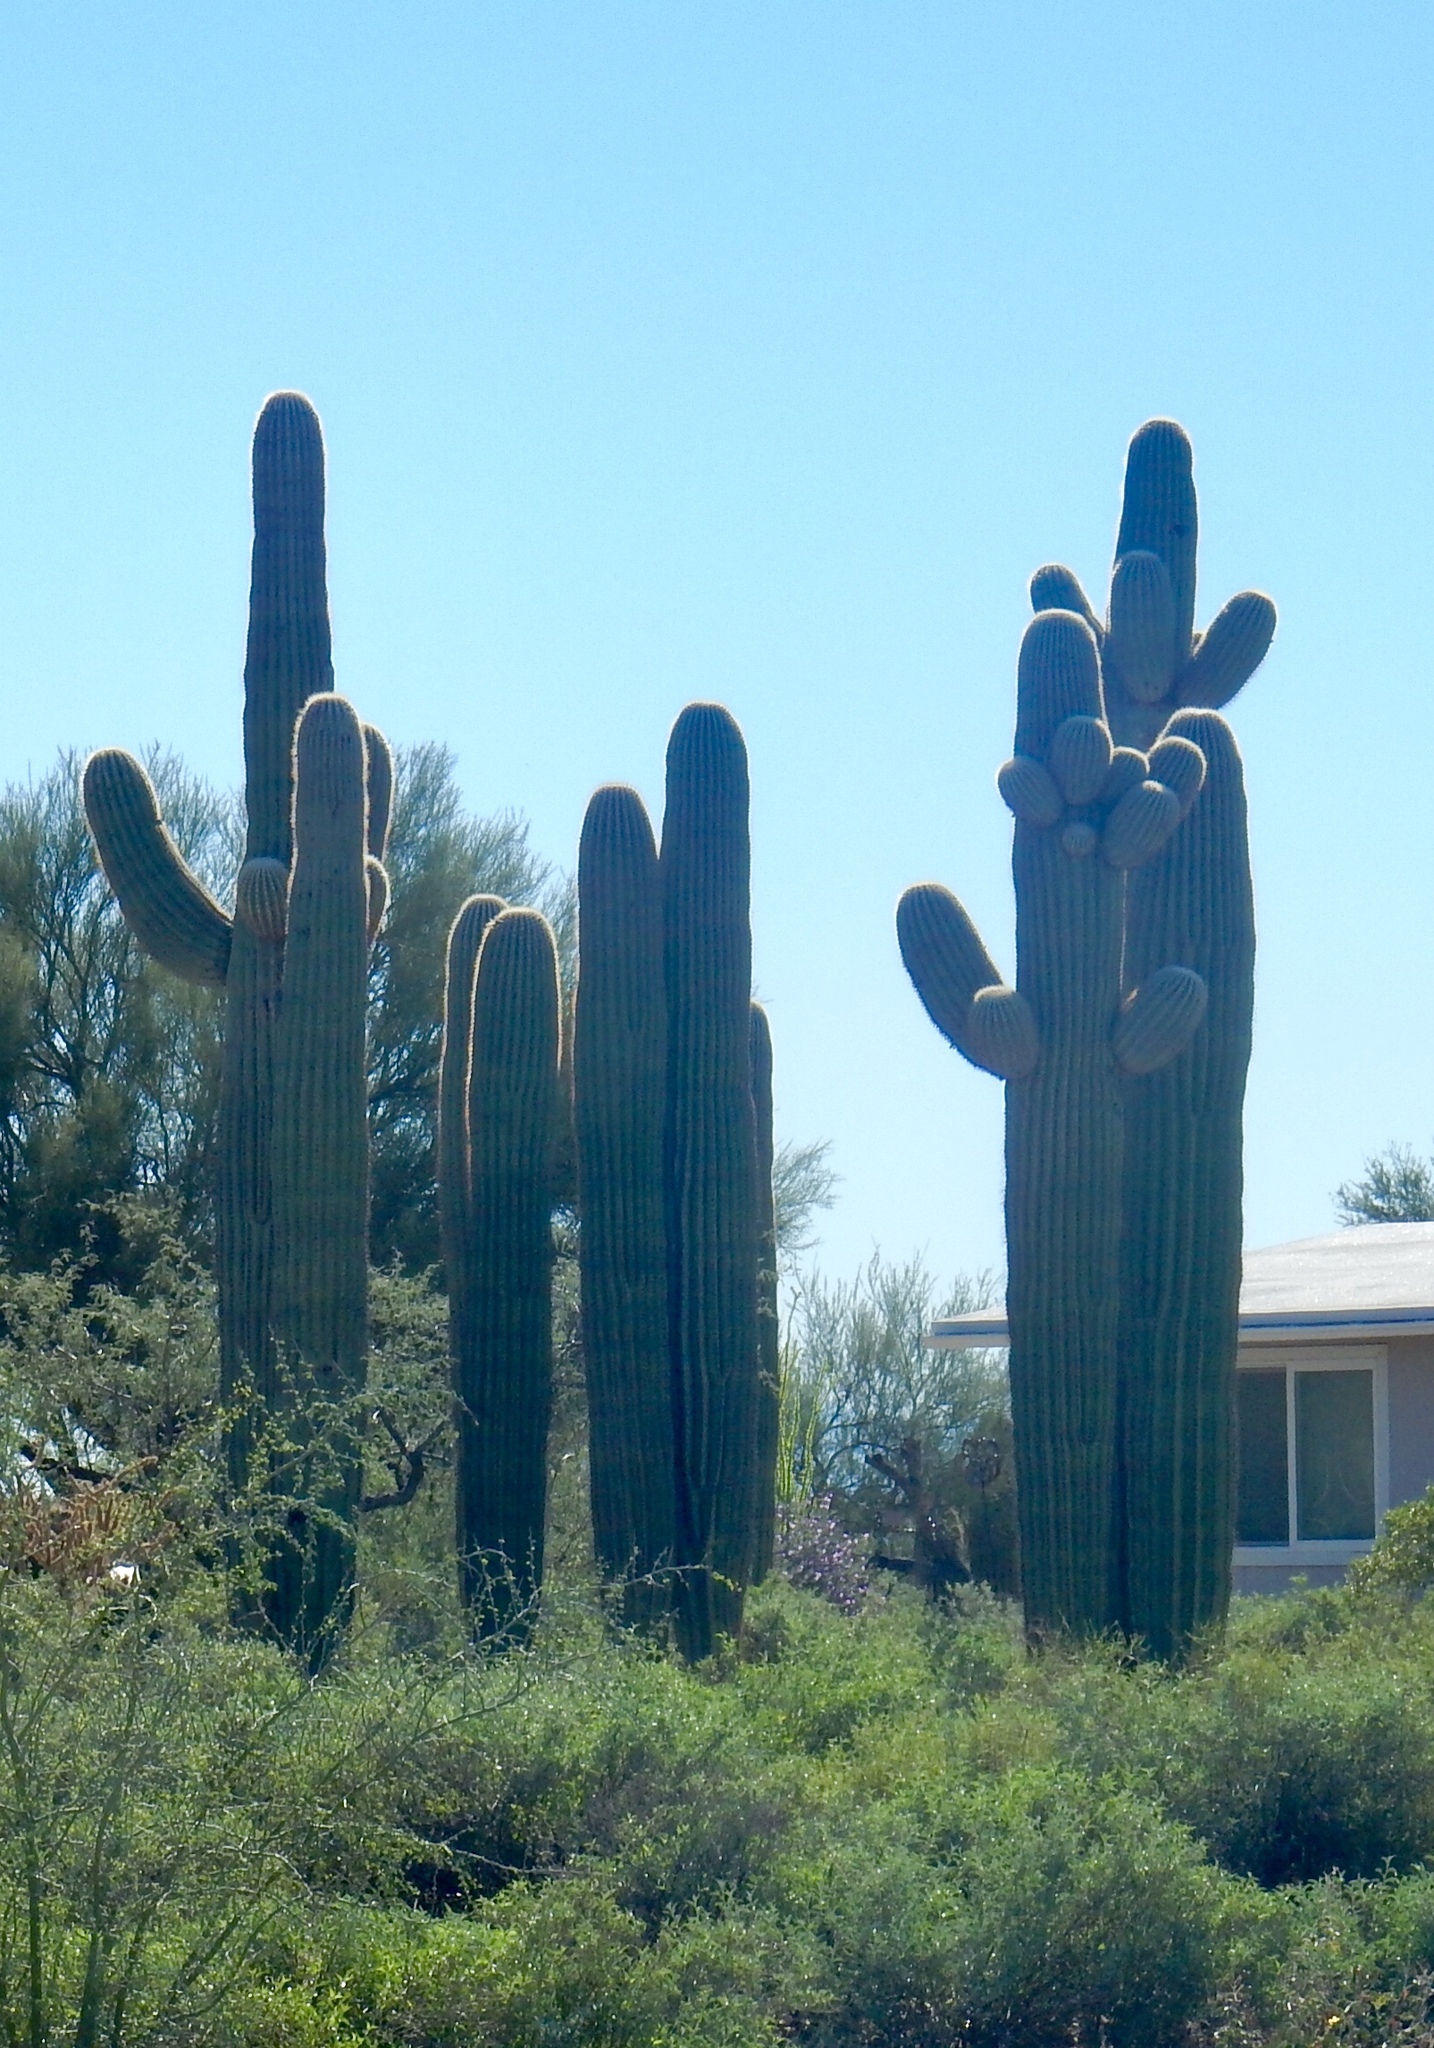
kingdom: Plantae
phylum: Tracheophyta
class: Magnoliopsida
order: Caryophyllales
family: Cactaceae
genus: Carnegiea
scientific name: Carnegiea gigantea
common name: Saguaro
